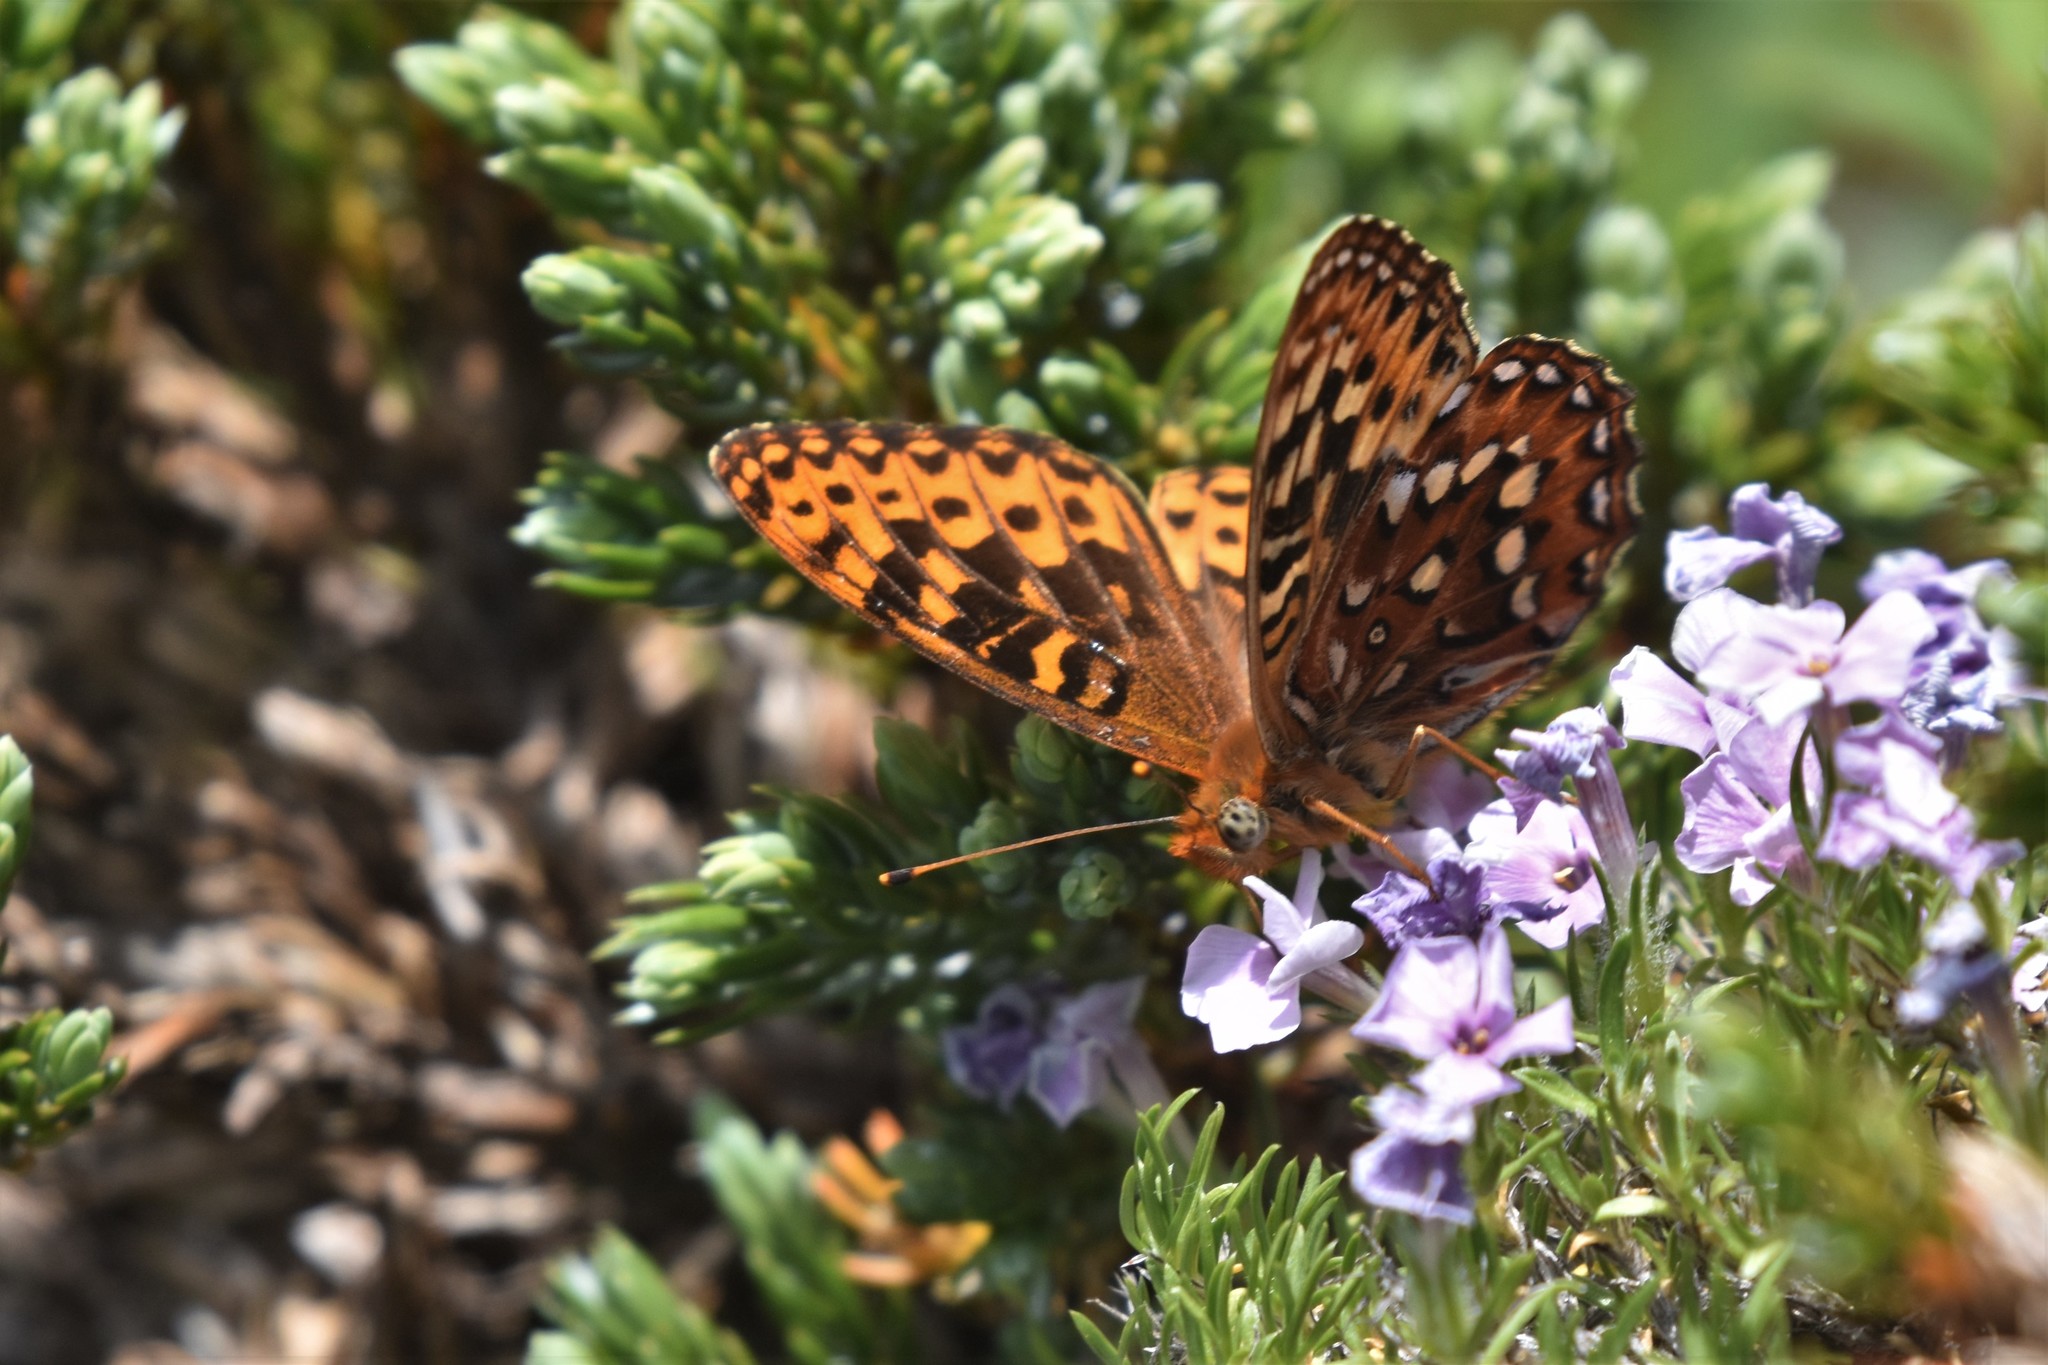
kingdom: Animalia
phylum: Arthropoda
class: Insecta
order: Lepidoptera
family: Nymphalidae
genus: Speyeria
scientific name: Speyeria hydaspe
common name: Hydaspe fritillary
